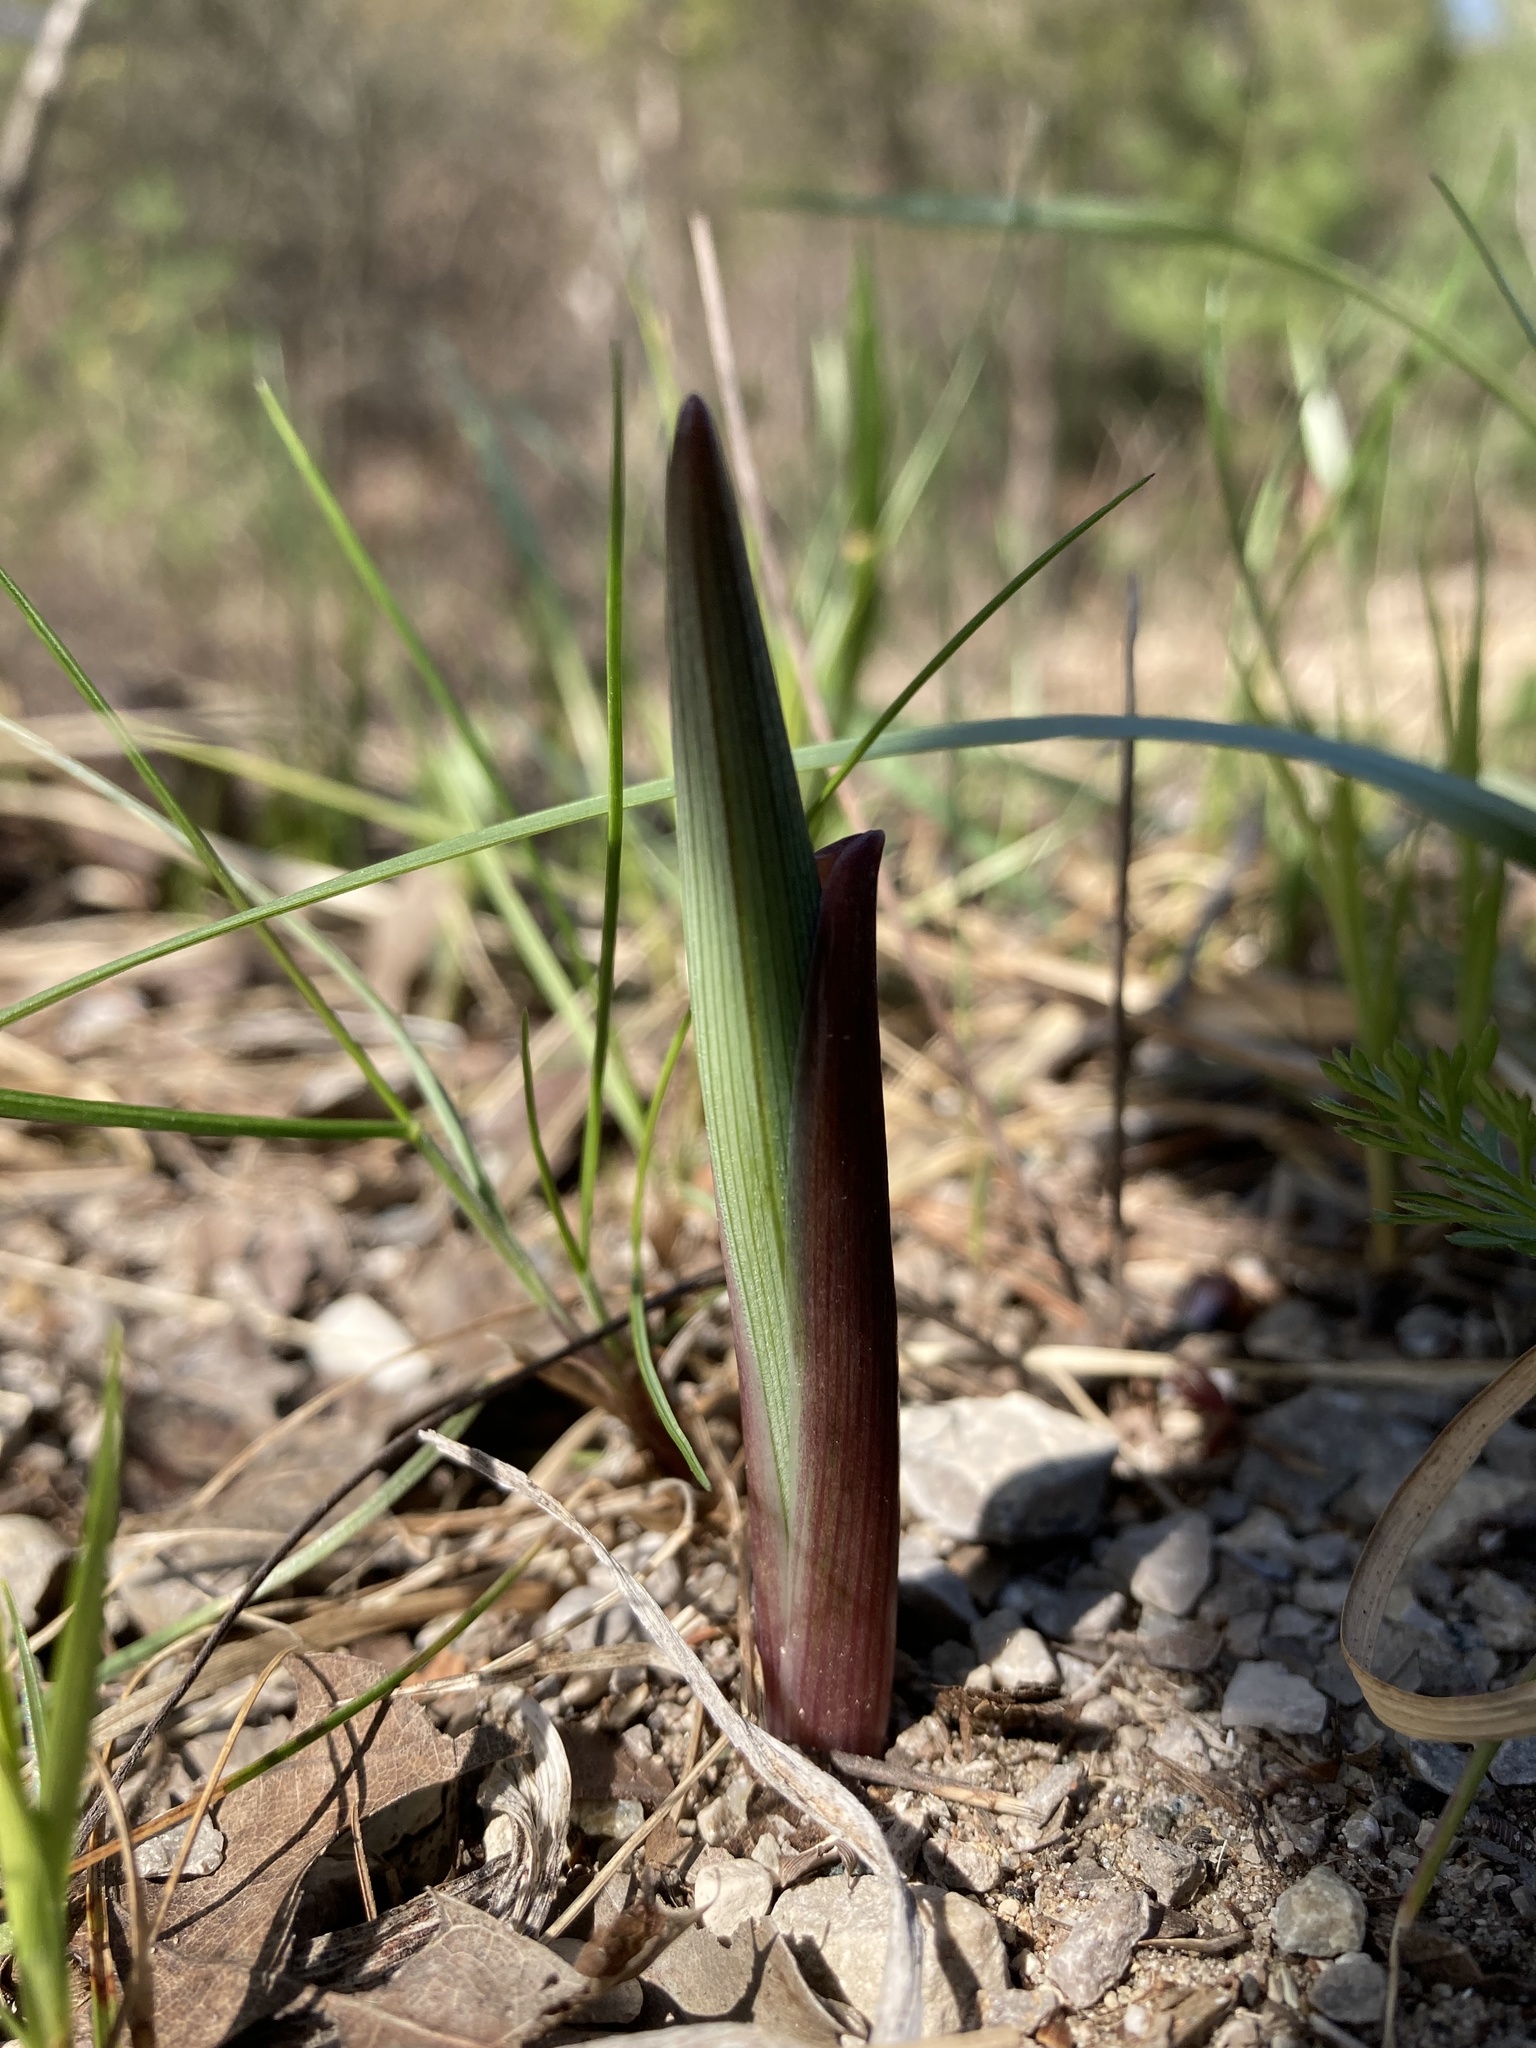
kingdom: Plantae
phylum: Tracheophyta
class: Liliopsida
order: Asparagales
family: Asparagaceae
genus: Maianthemum
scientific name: Maianthemum racemosum
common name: False spikenard
